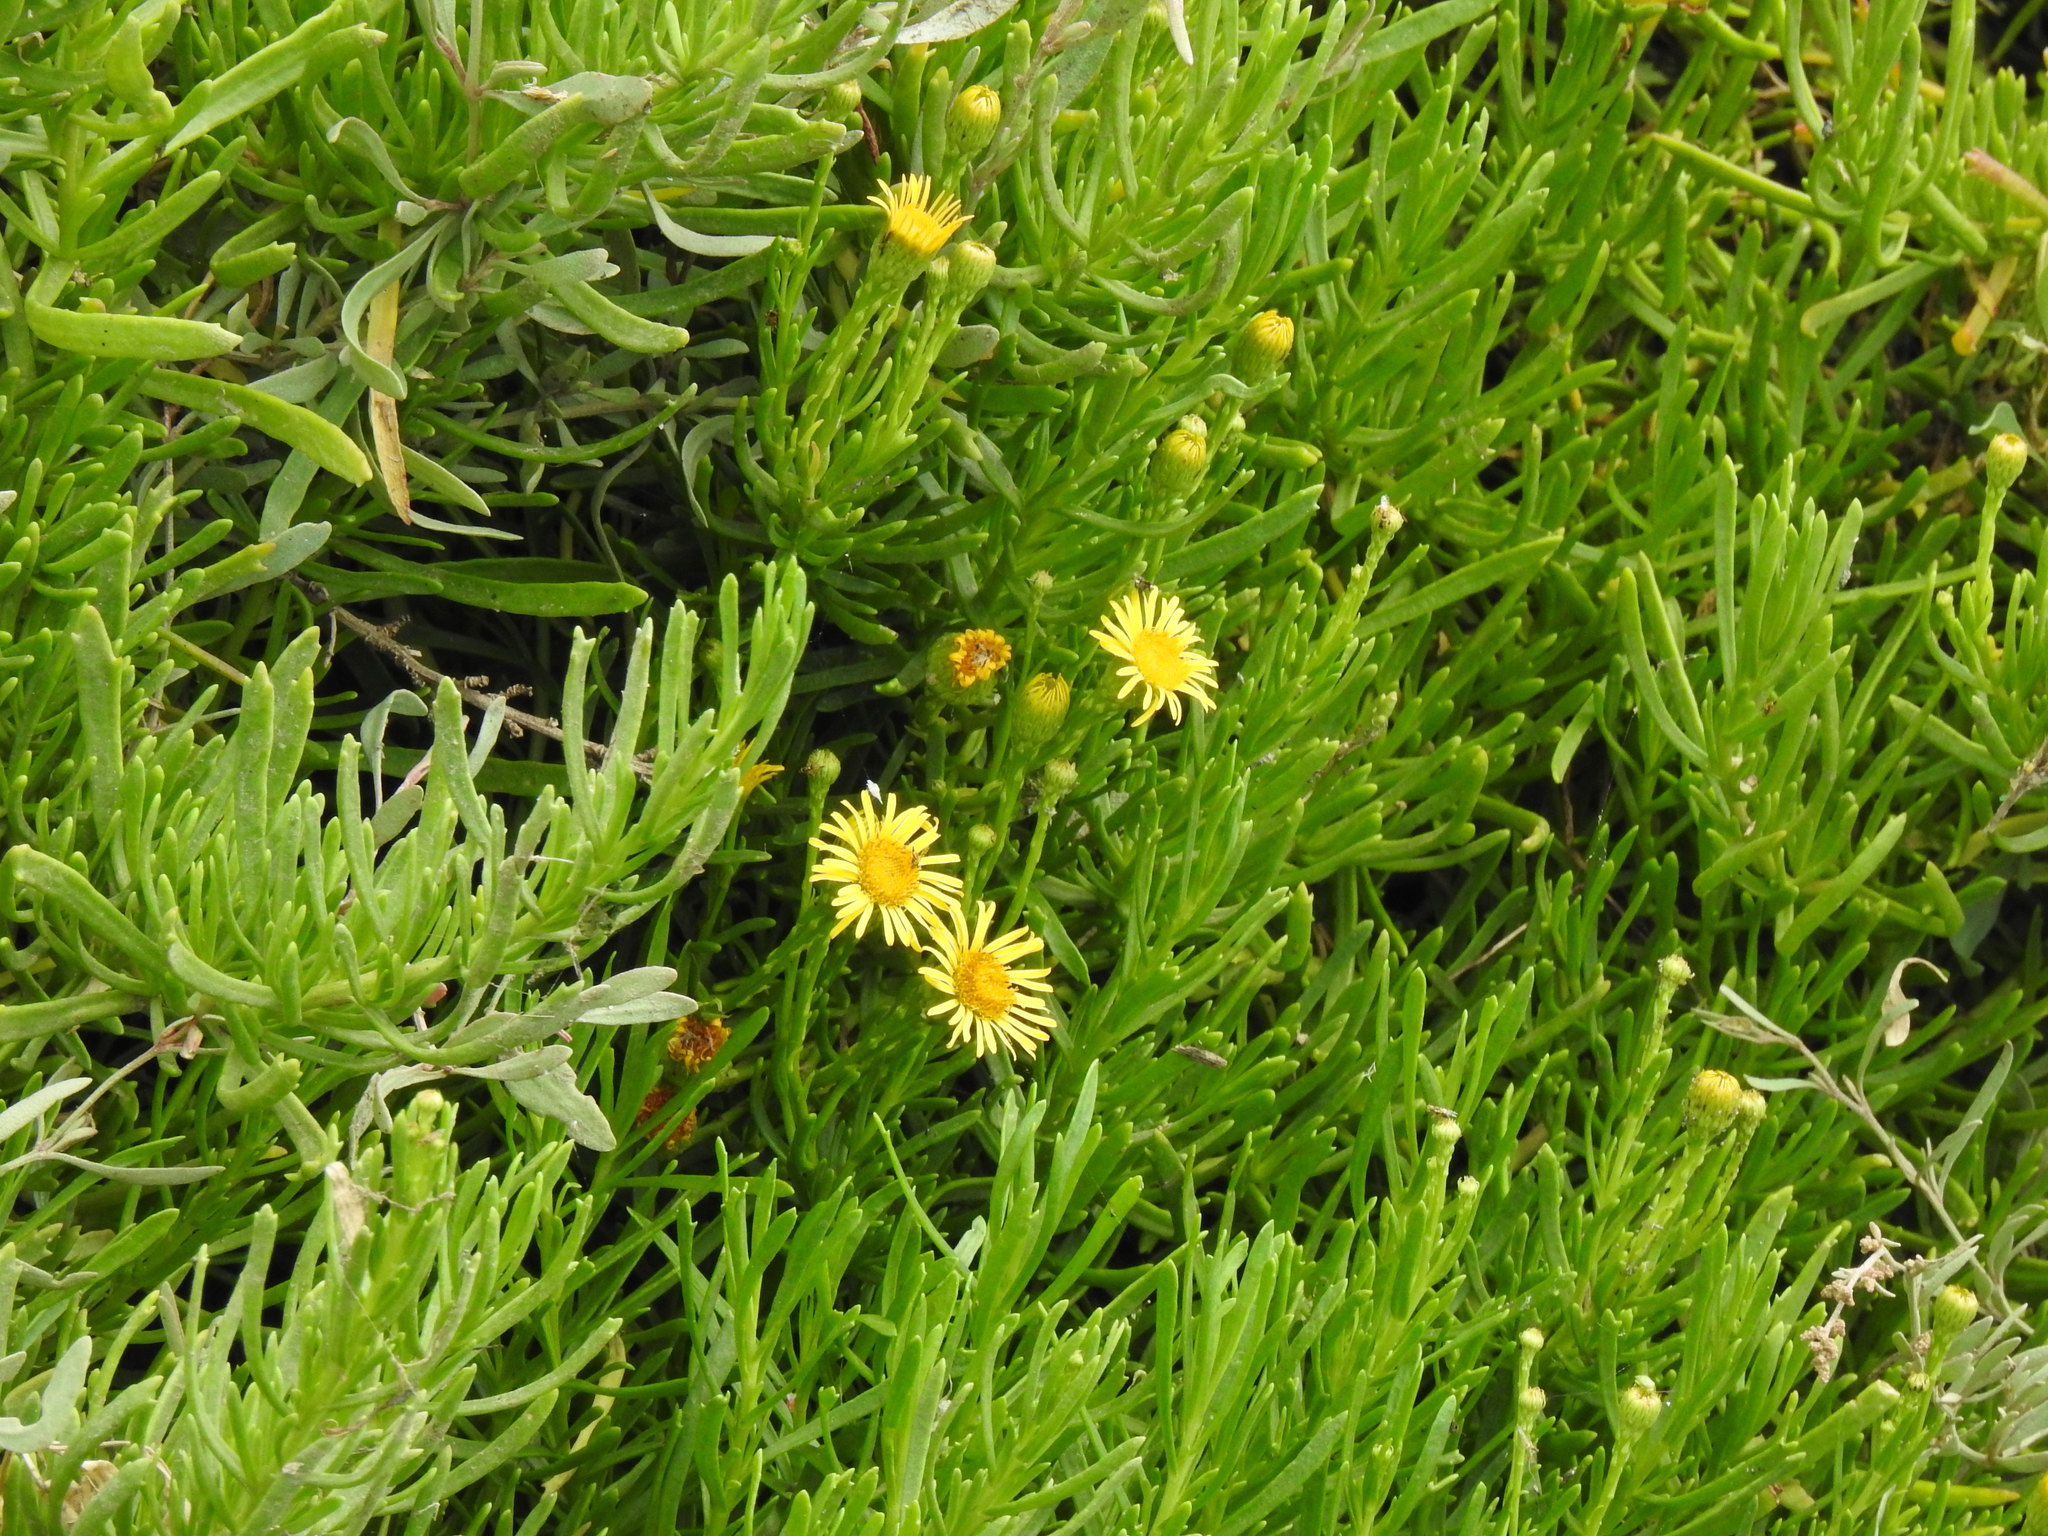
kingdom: Plantae
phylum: Tracheophyta
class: Magnoliopsida
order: Asterales
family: Asteraceae
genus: Limbarda
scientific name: Limbarda crithmoides
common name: Golden samphire
